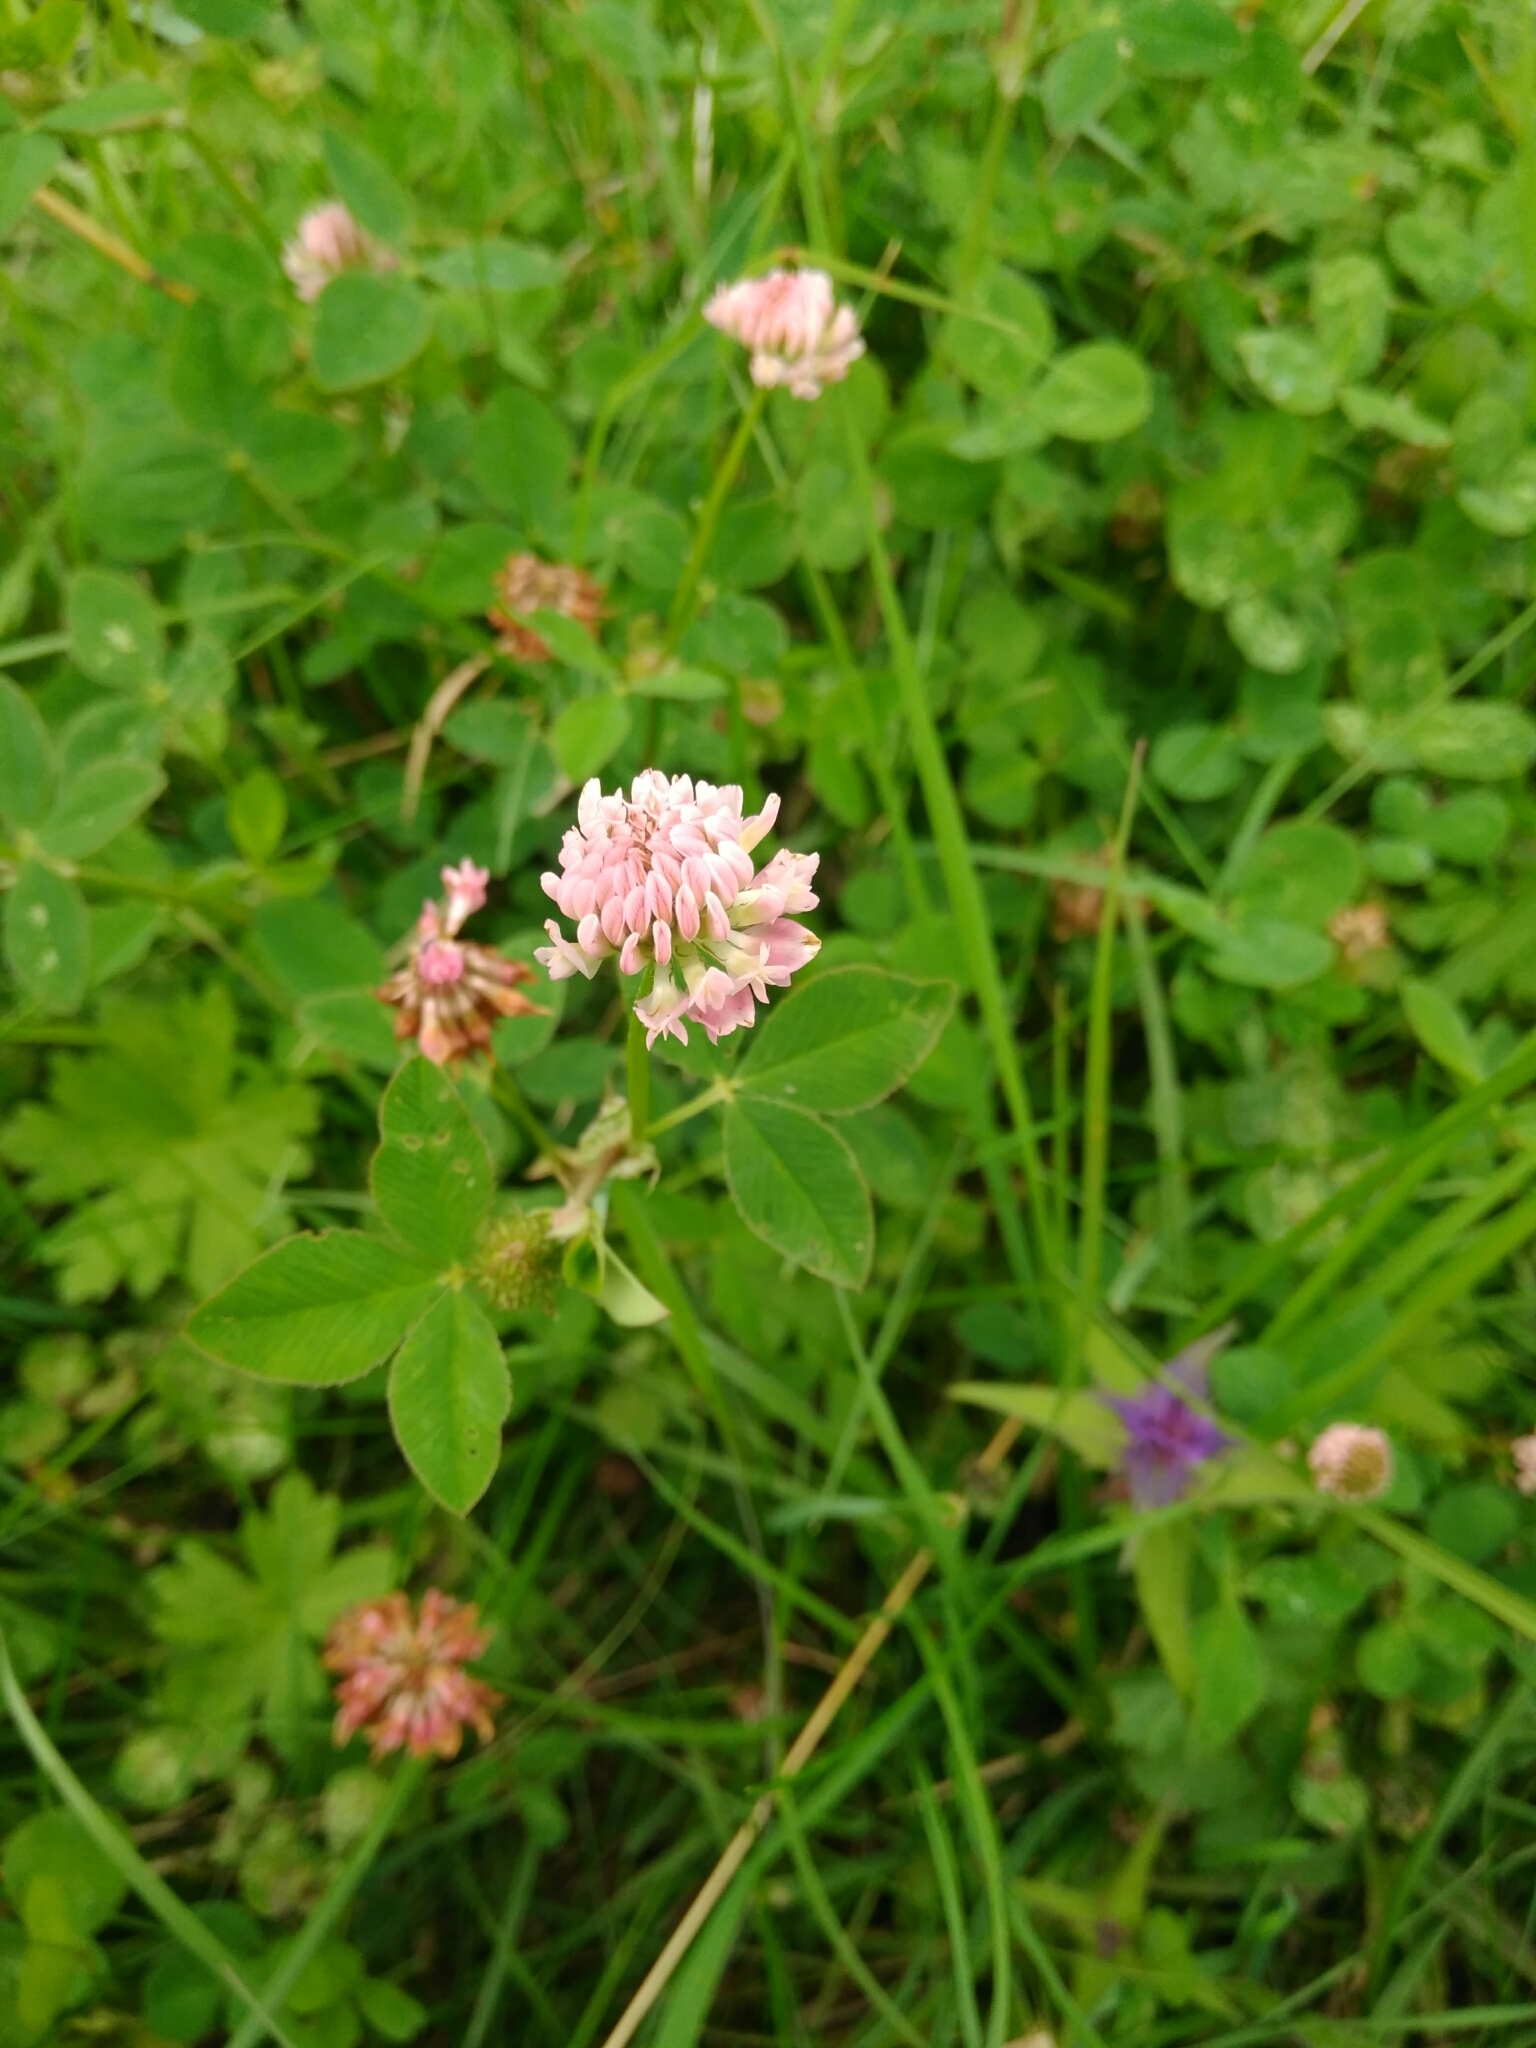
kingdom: Plantae
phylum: Tracheophyta
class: Magnoliopsida
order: Fabales
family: Fabaceae
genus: Trifolium
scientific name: Trifolium hybridum
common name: Alsike clover
